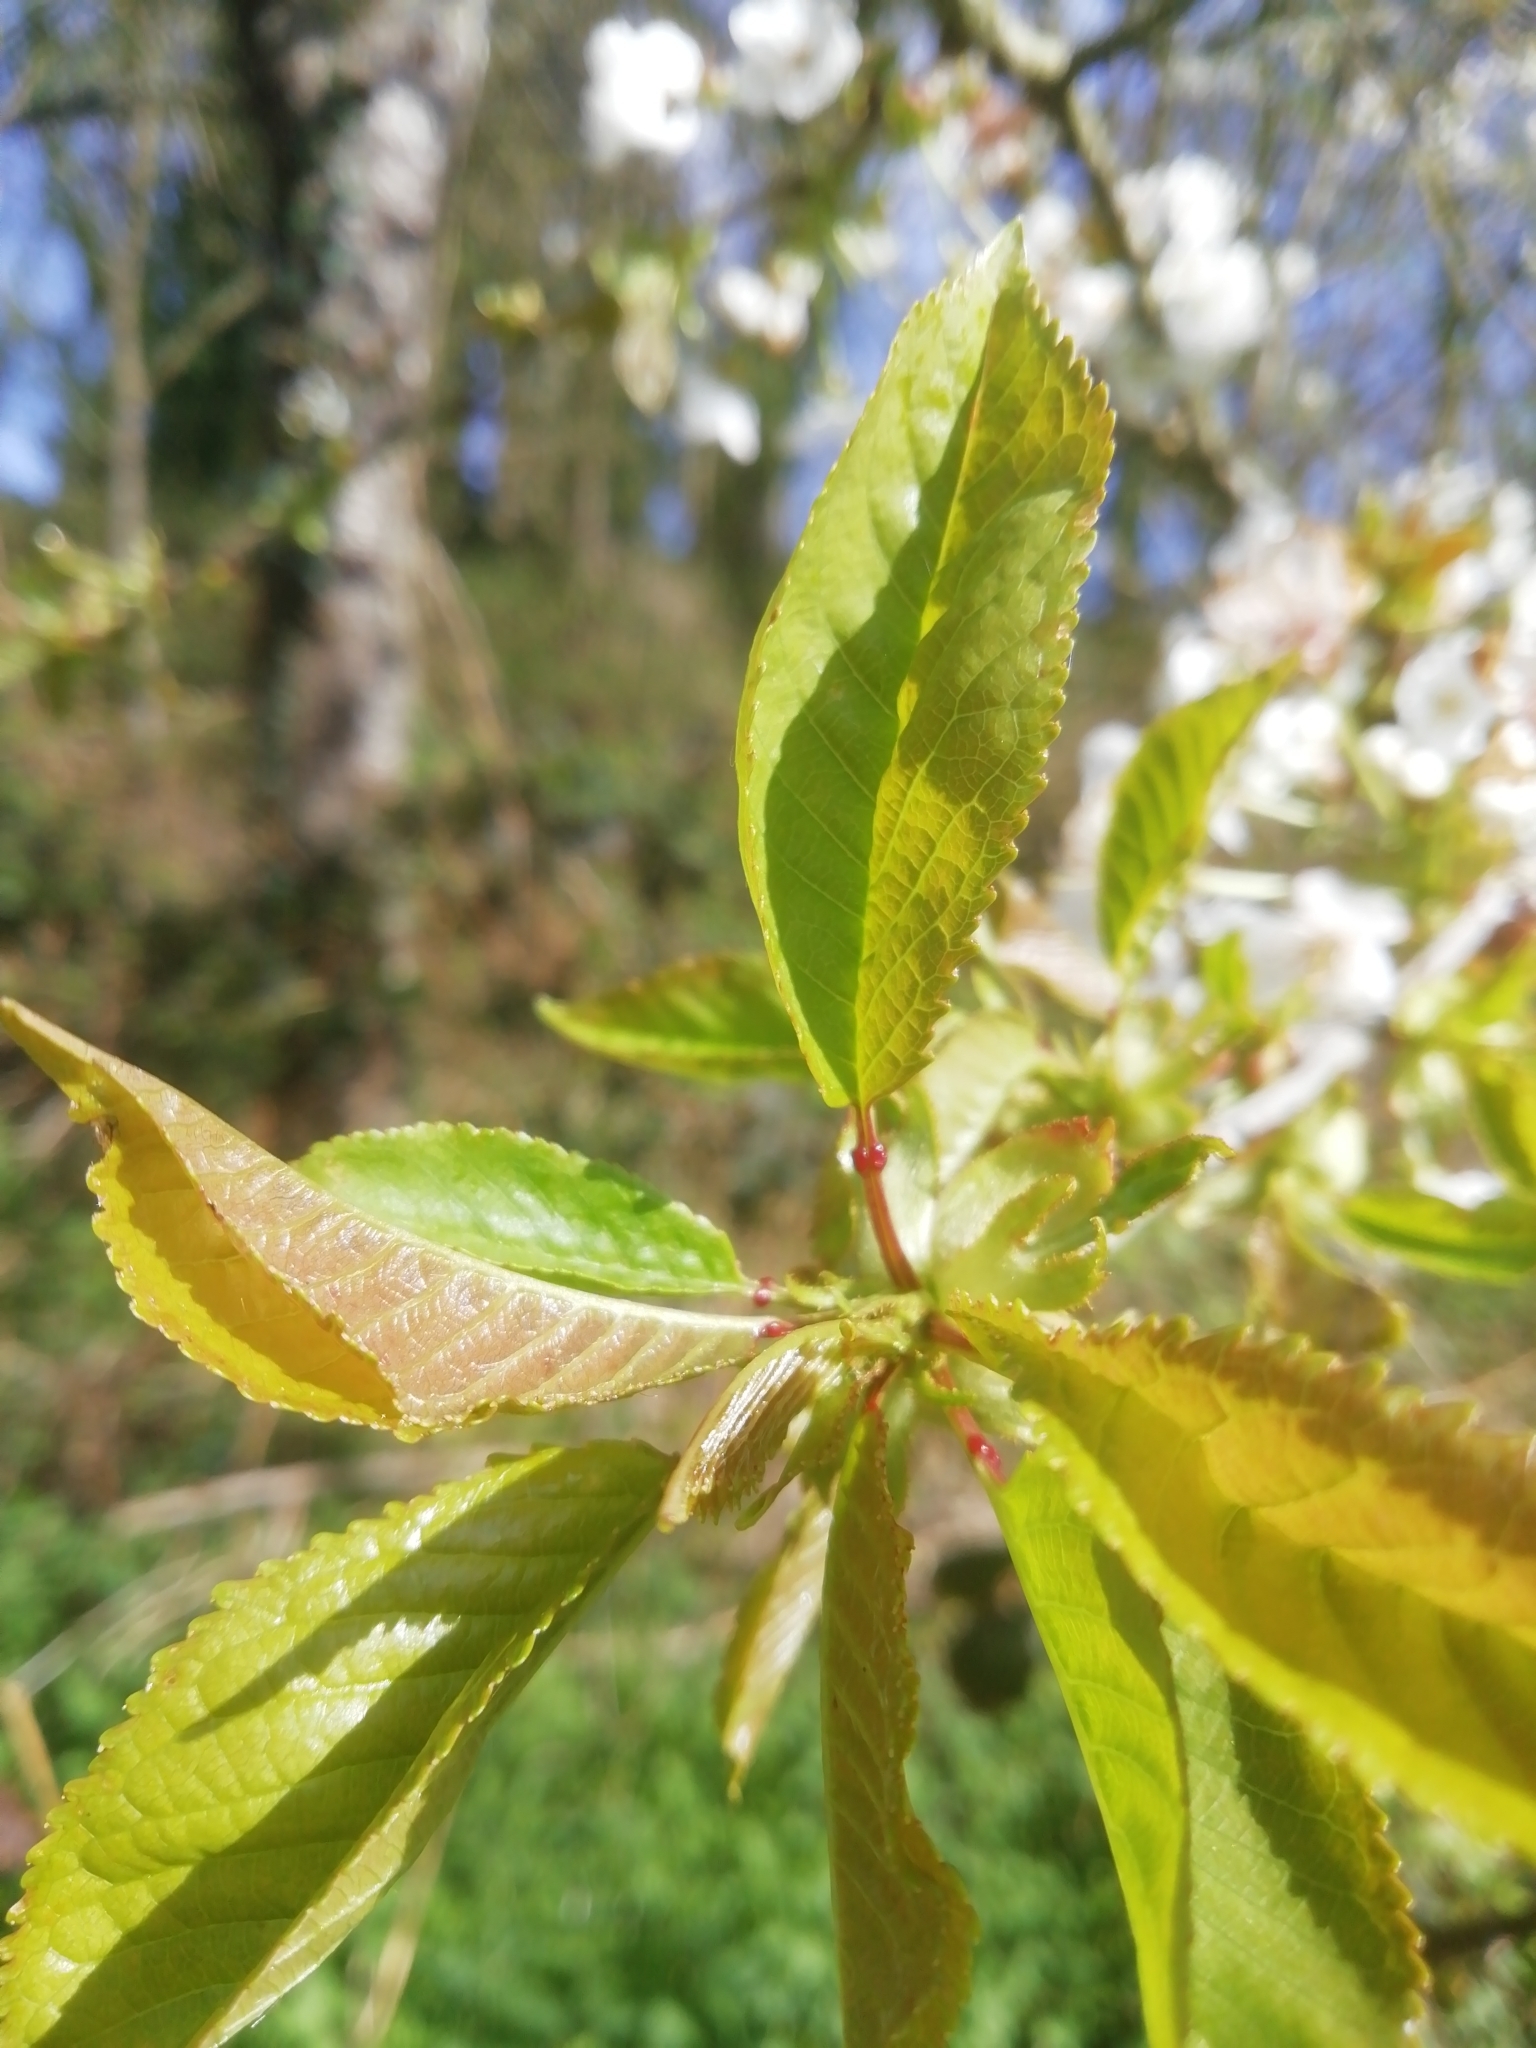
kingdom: Plantae
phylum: Tracheophyta
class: Magnoliopsida
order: Rosales
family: Rosaceae
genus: Prunus
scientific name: Prunus avium
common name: Sweet cherry
